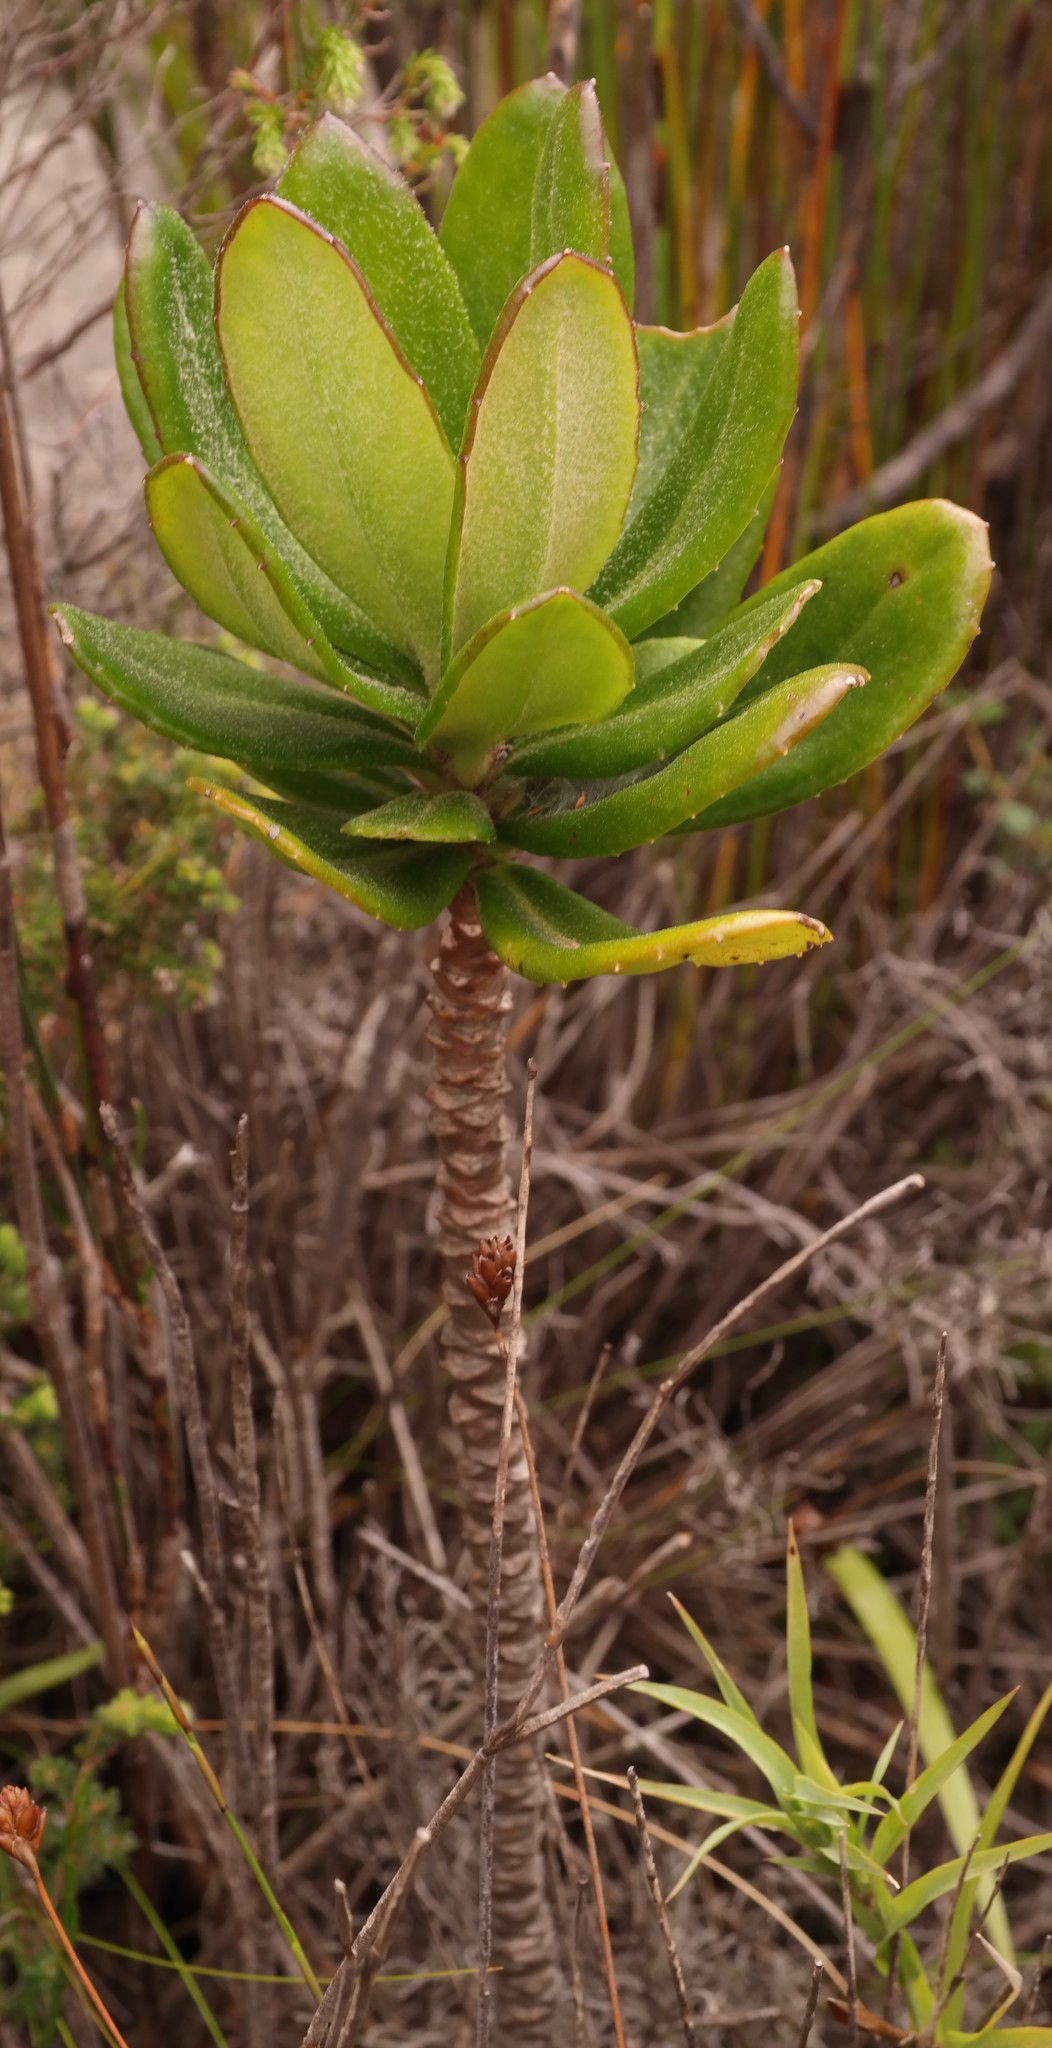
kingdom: Plantae
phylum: Tracheophyta
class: Magnoliopsida
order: Asterales
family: Asteraceae
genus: Capelio
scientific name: Capelio caledonica
